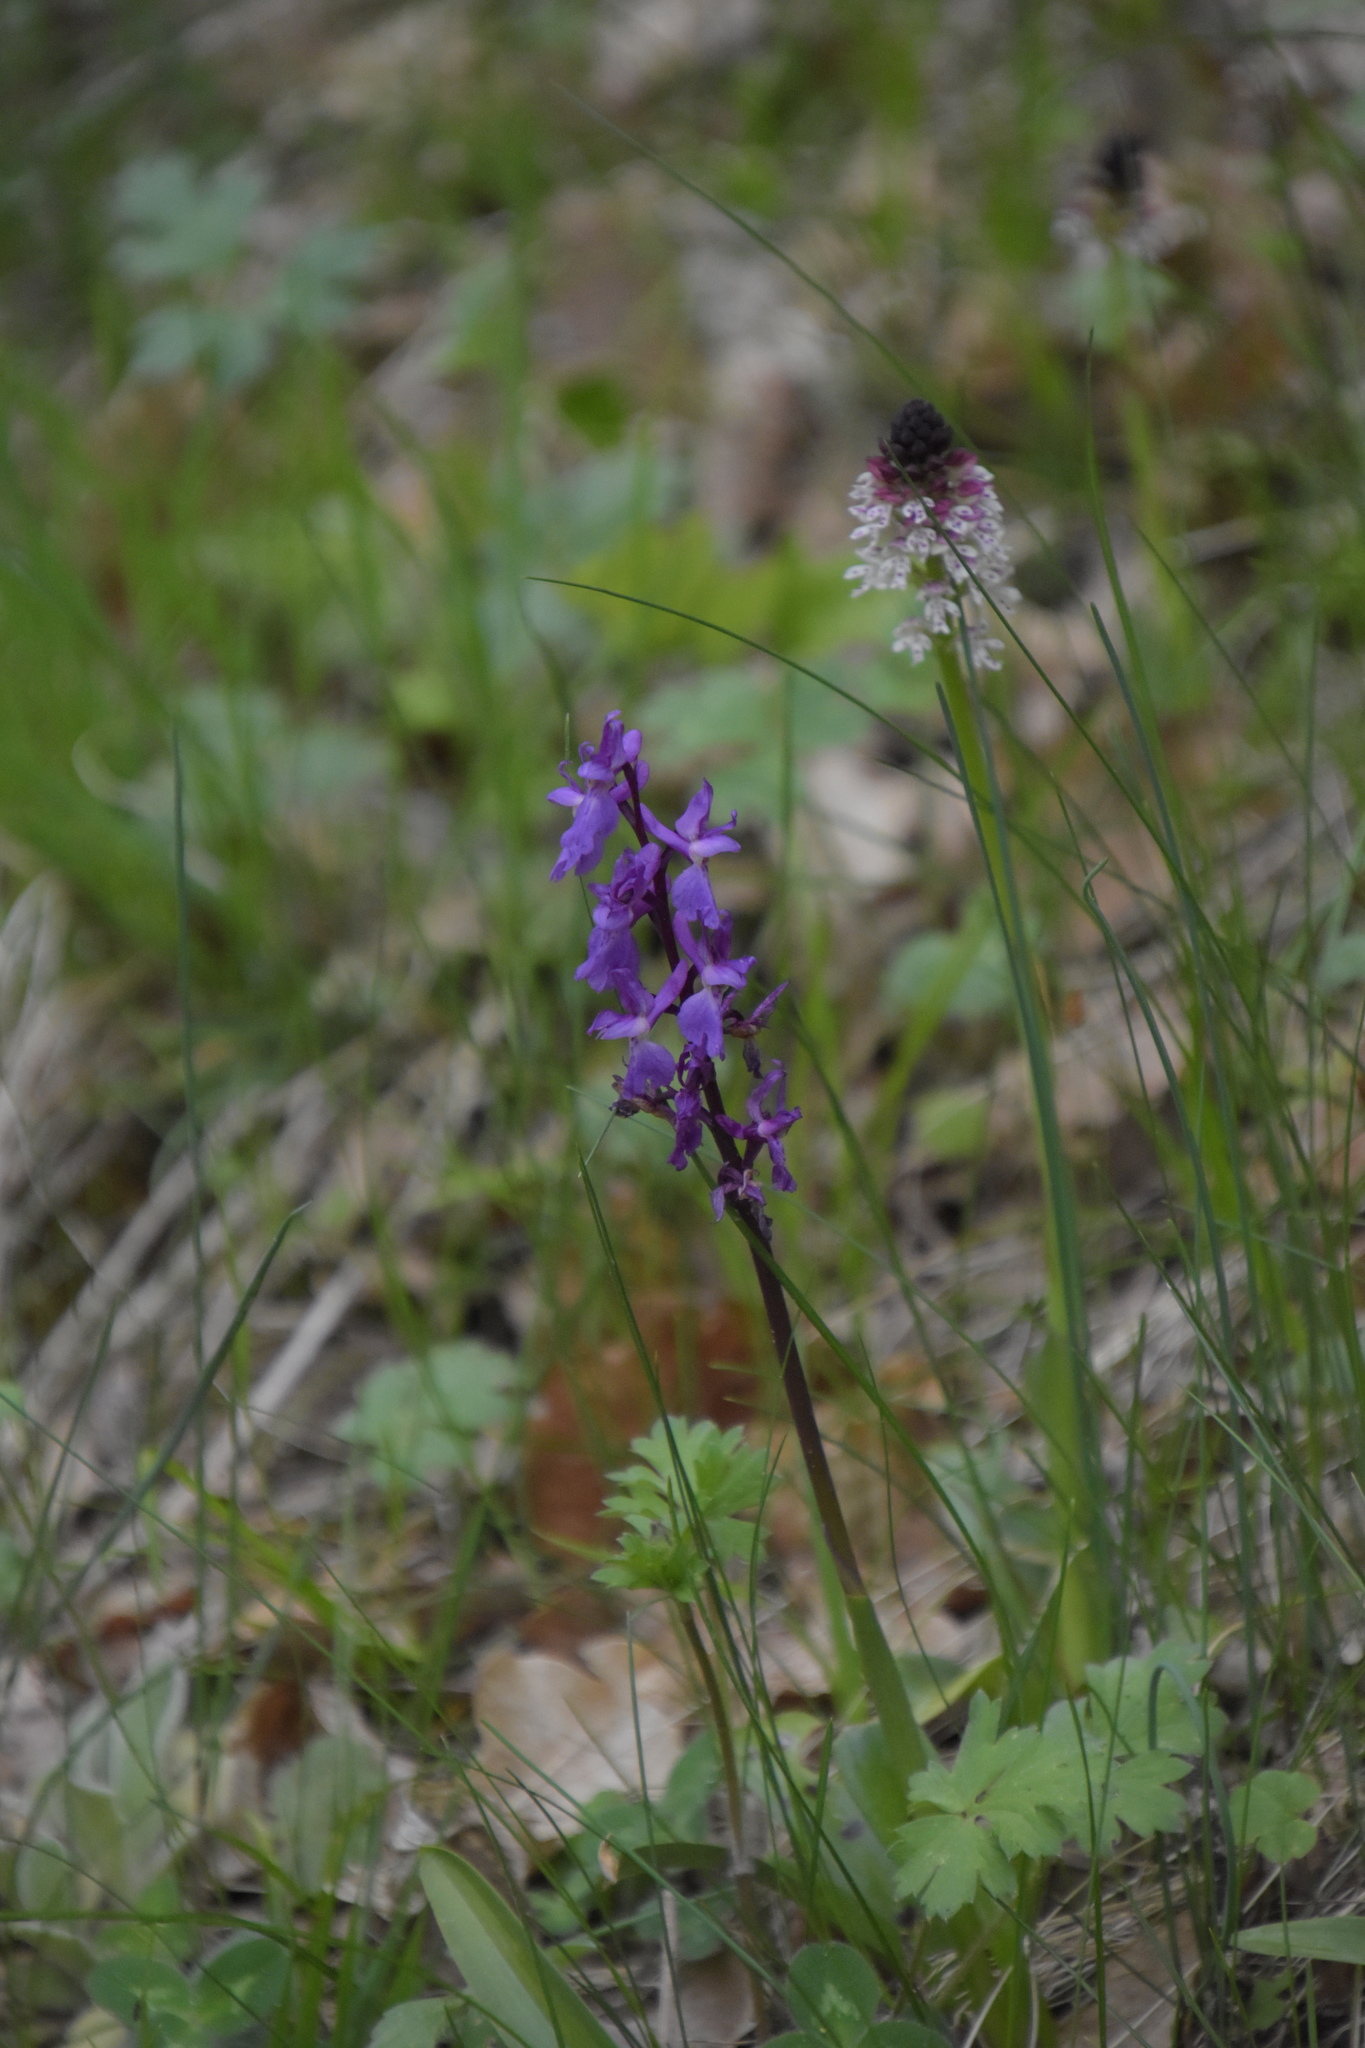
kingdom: Plantae
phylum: Tracheophyta
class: Liliopsida
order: Asparagales
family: Orchidaceae
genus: Neotinea
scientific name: Neotinea ustulata
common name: Burnt orchid
